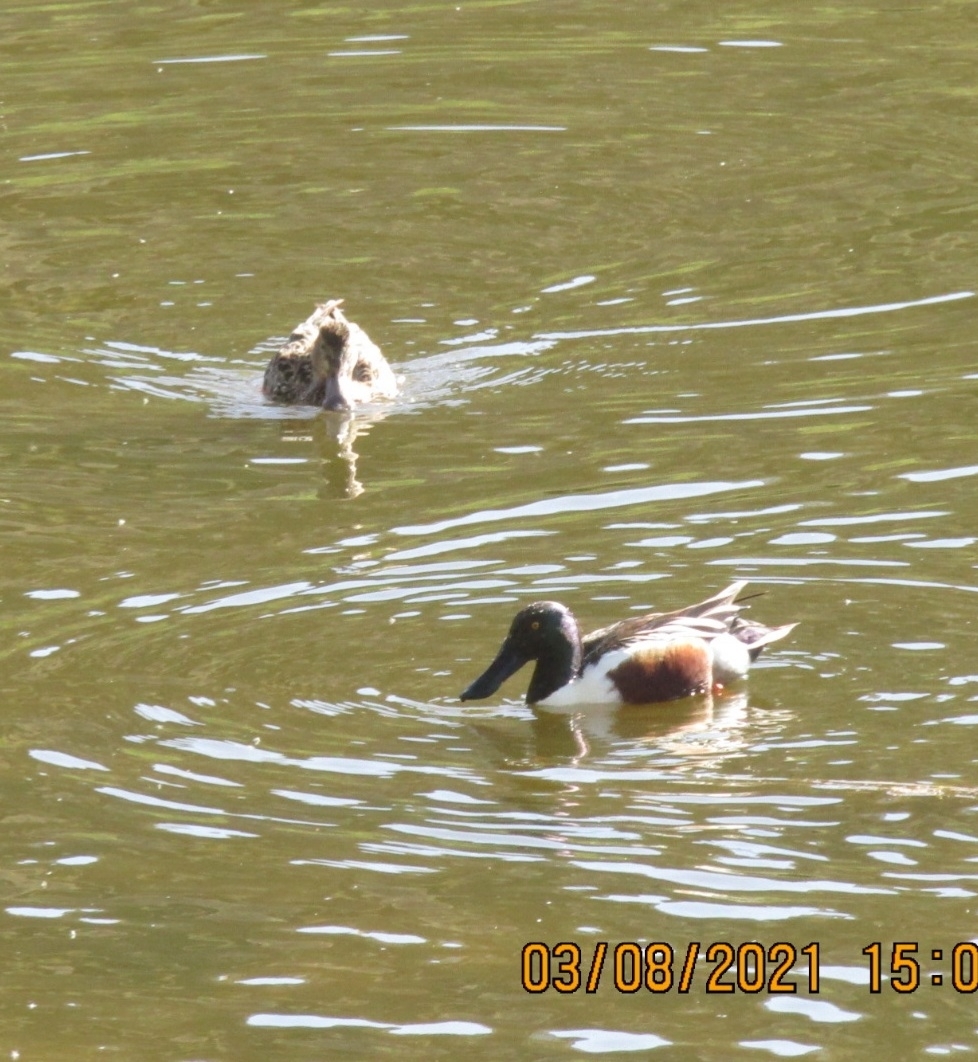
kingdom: Animalia
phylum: Chordata
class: Aves
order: Anseriformes
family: Anatidae
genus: Spatula
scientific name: Spatula clypeata
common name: Northern shoveler
